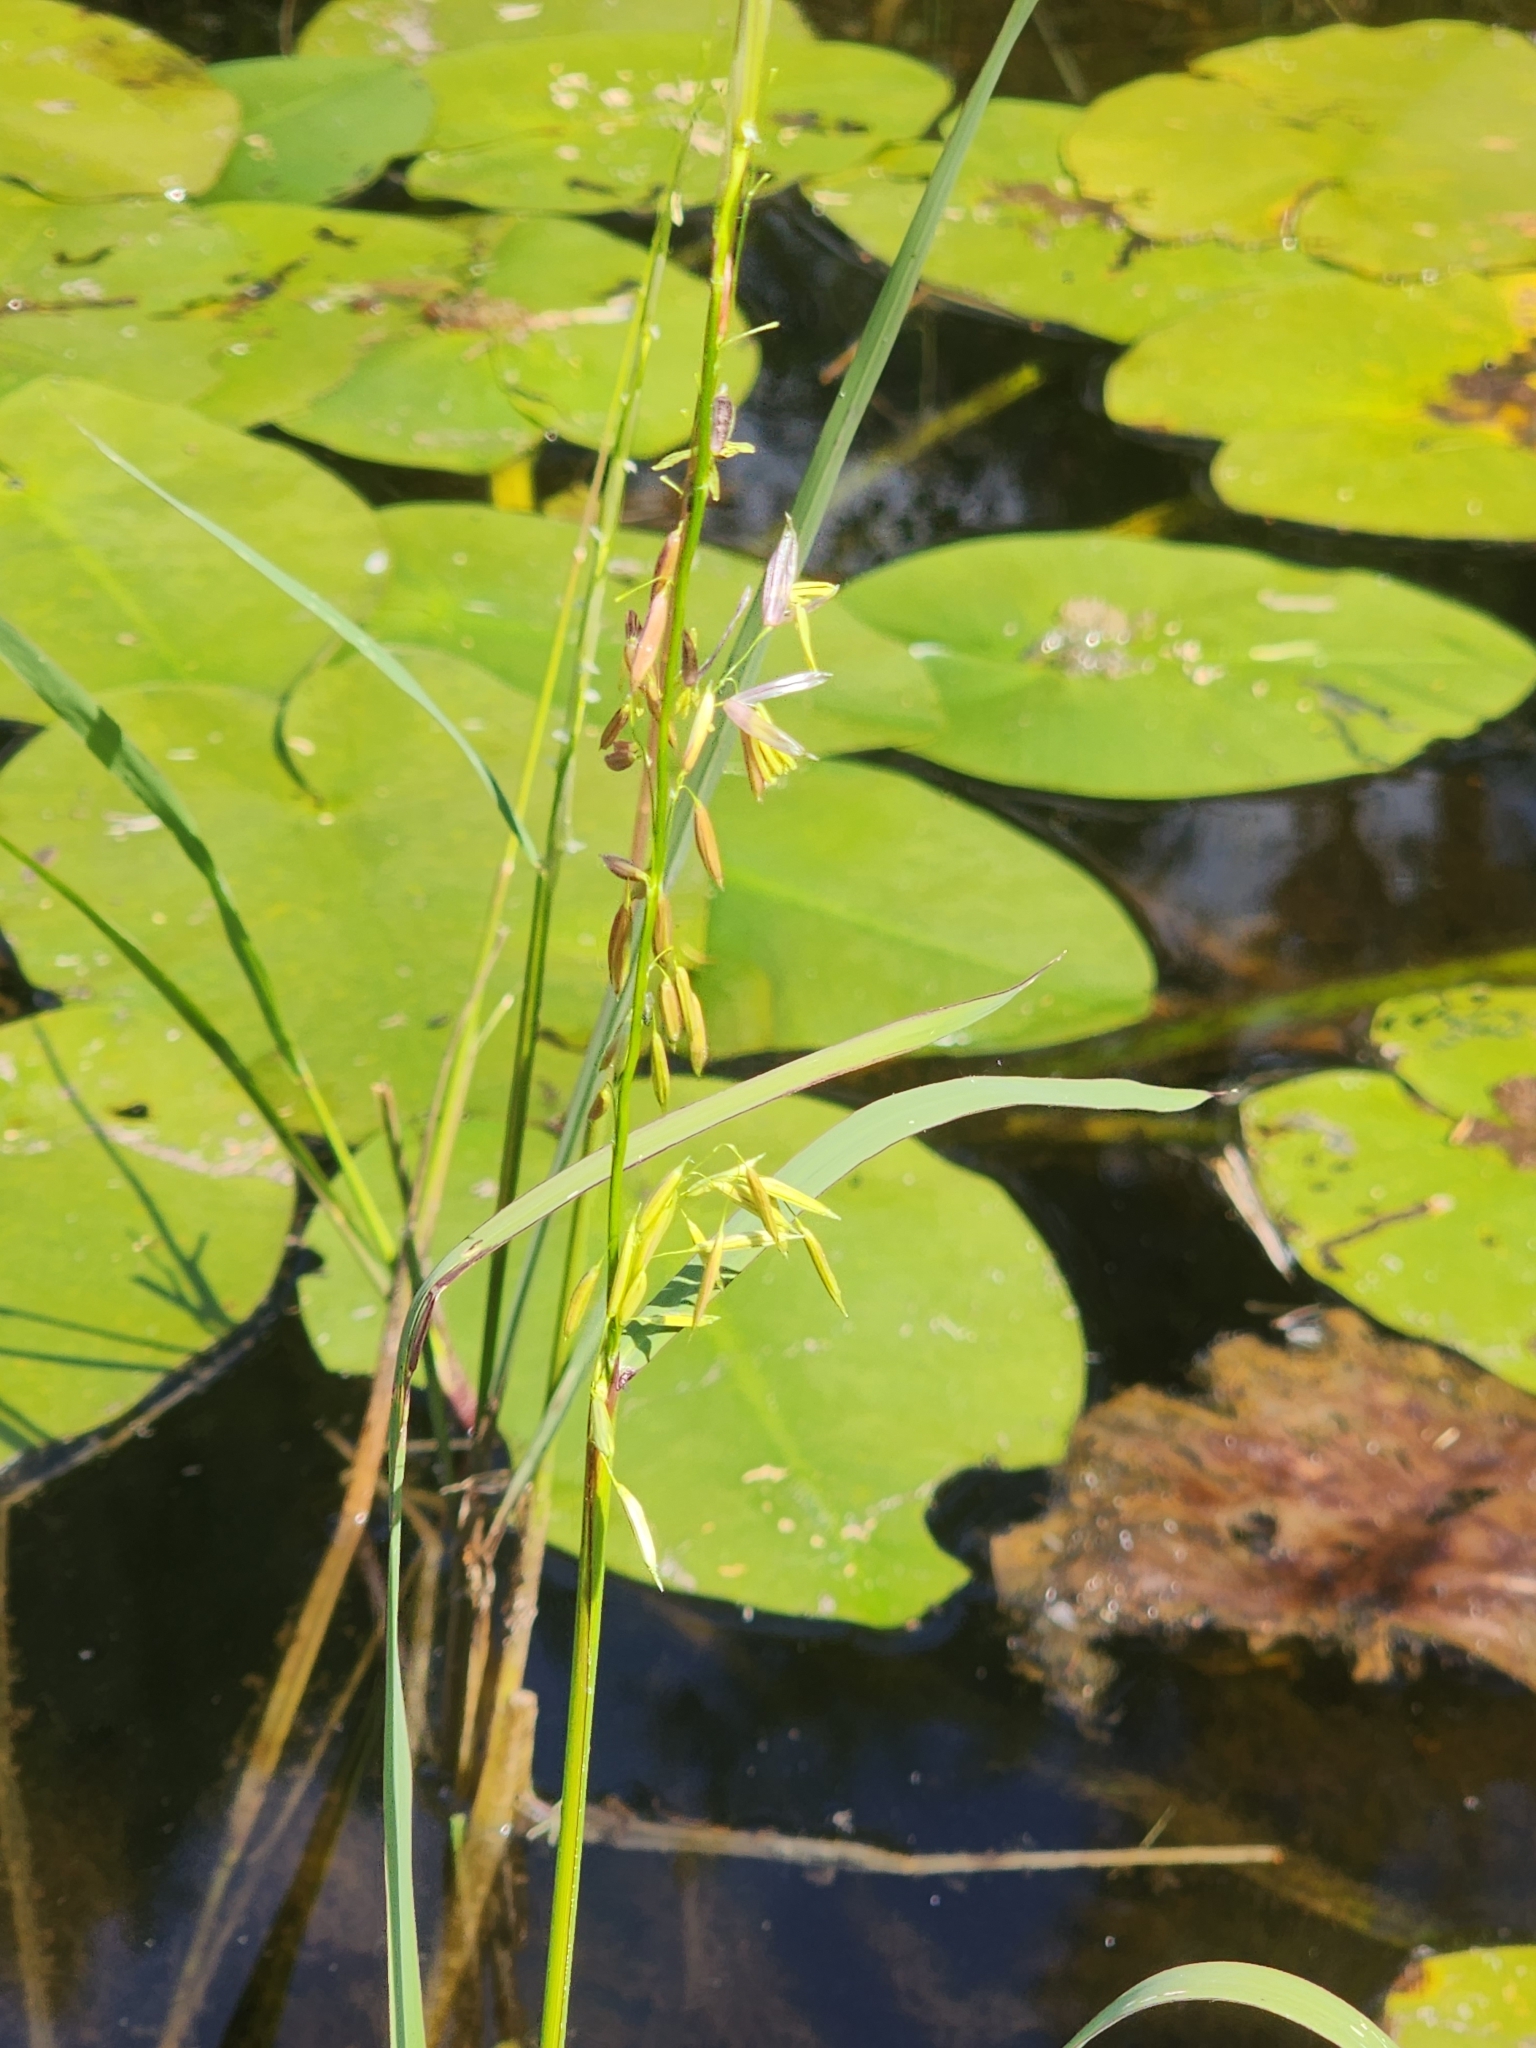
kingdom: Plantae
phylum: Tracheophyta
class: Liliopsida
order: Poales
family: Poaceae
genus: Zizania
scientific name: Zizania palustris
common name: Northern wild rice
